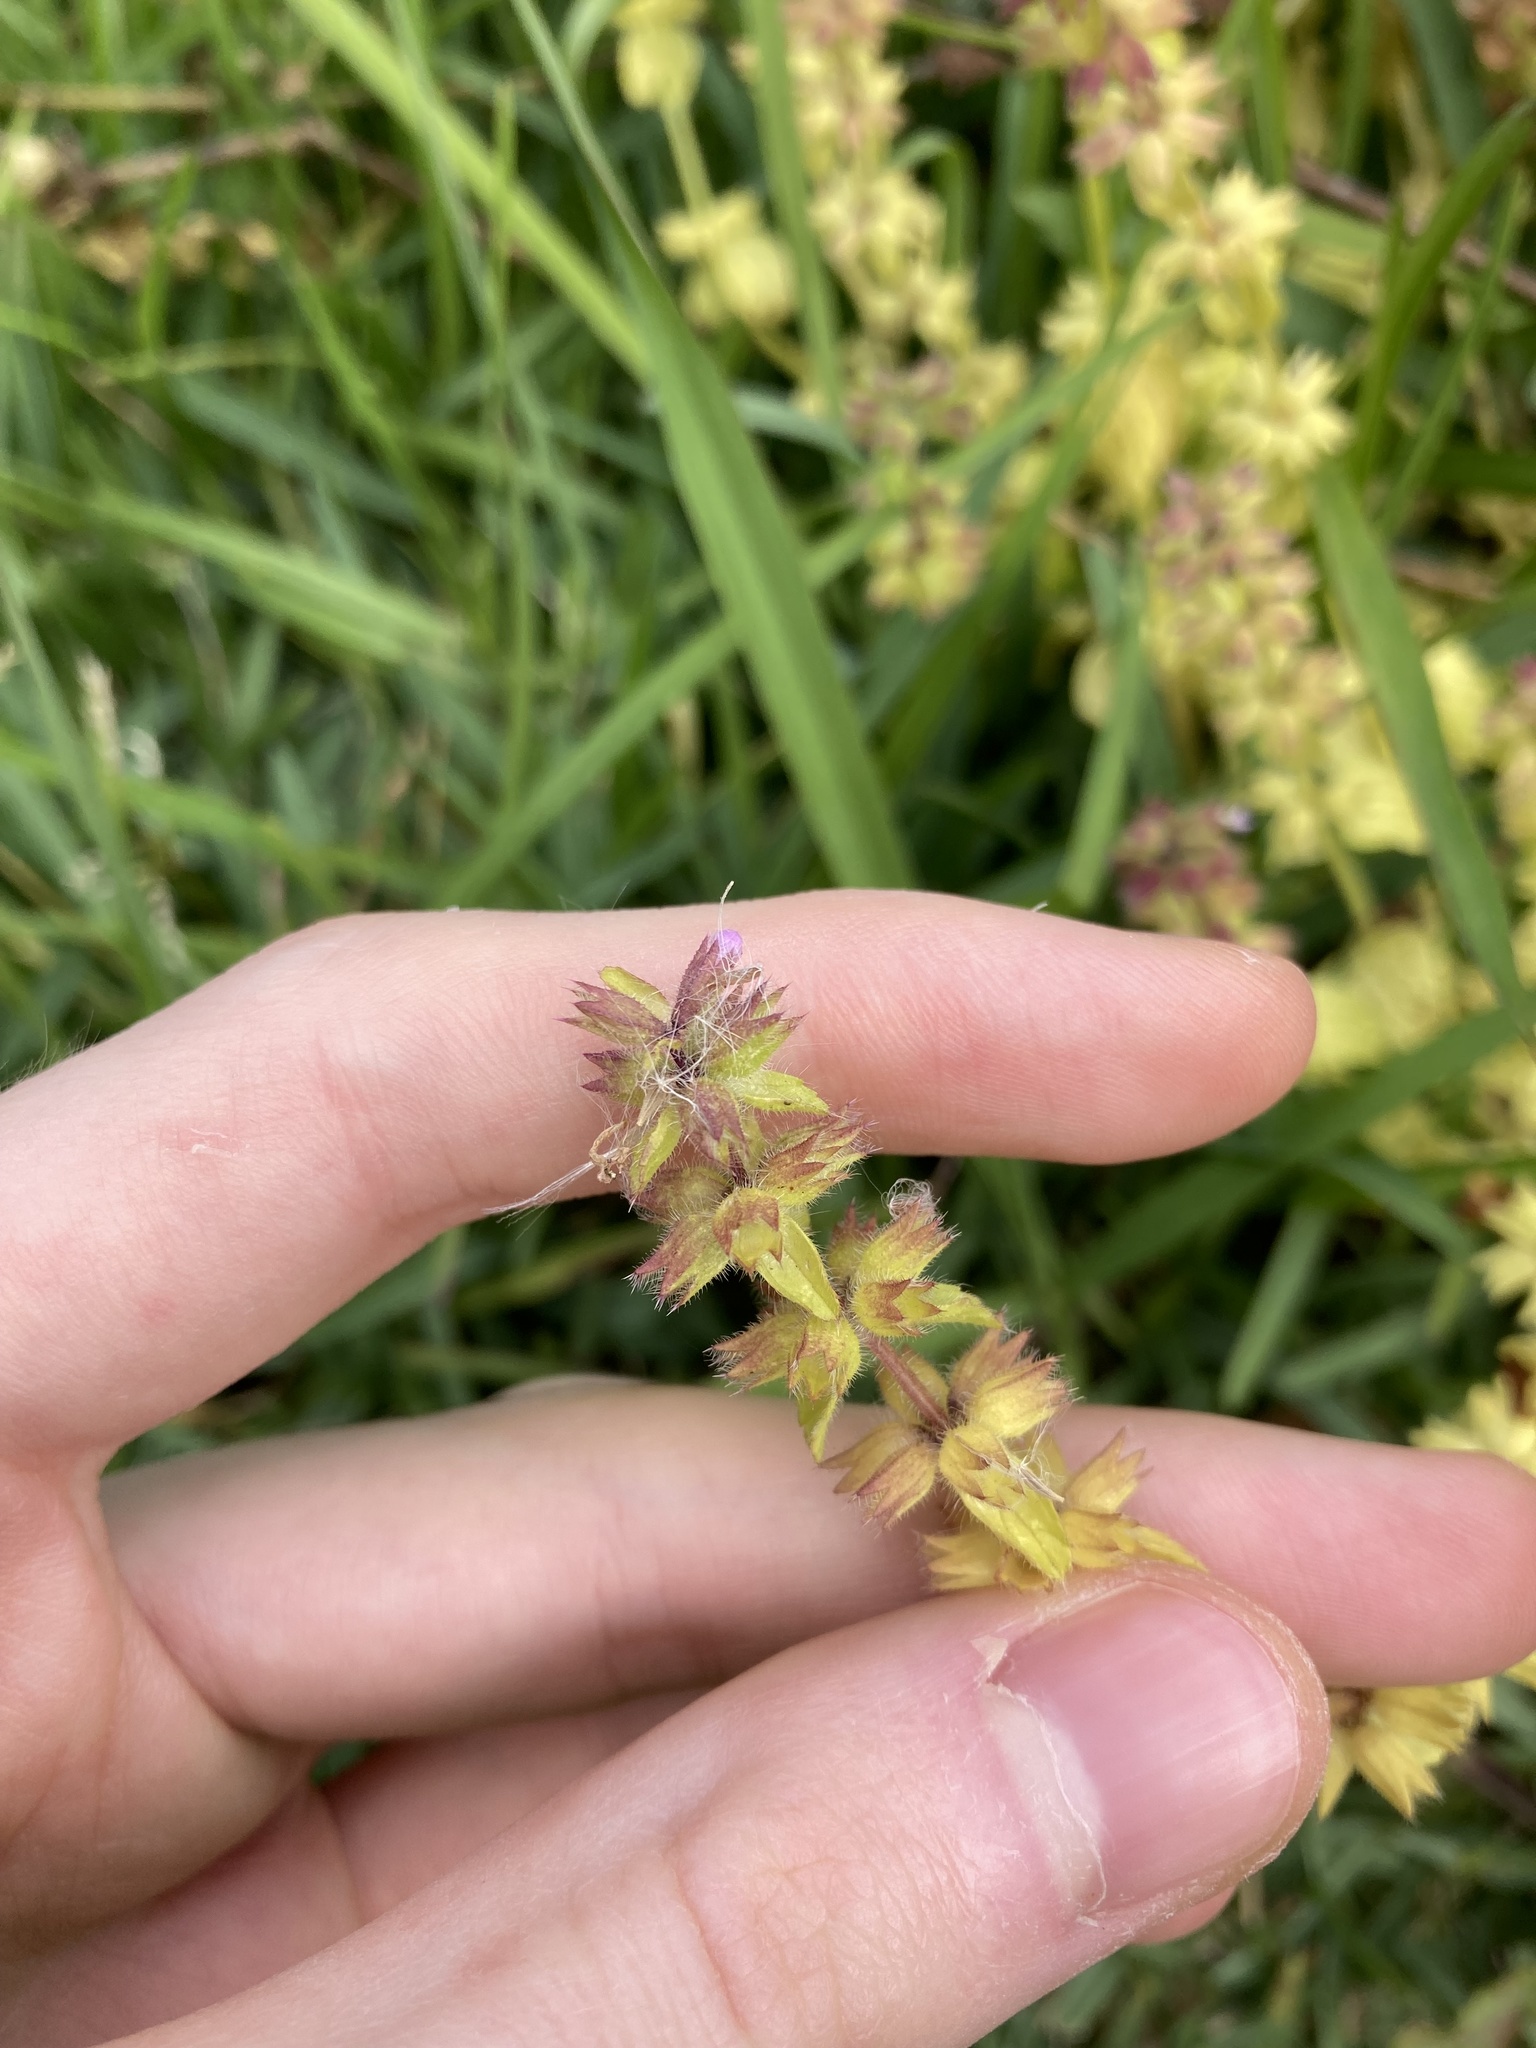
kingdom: Plantae
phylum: Tracheophyta
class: Magnoliopsida
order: Lamiales
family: Lamiaceae
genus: Stachys
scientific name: Stachys arvensis
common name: Field woundwort
